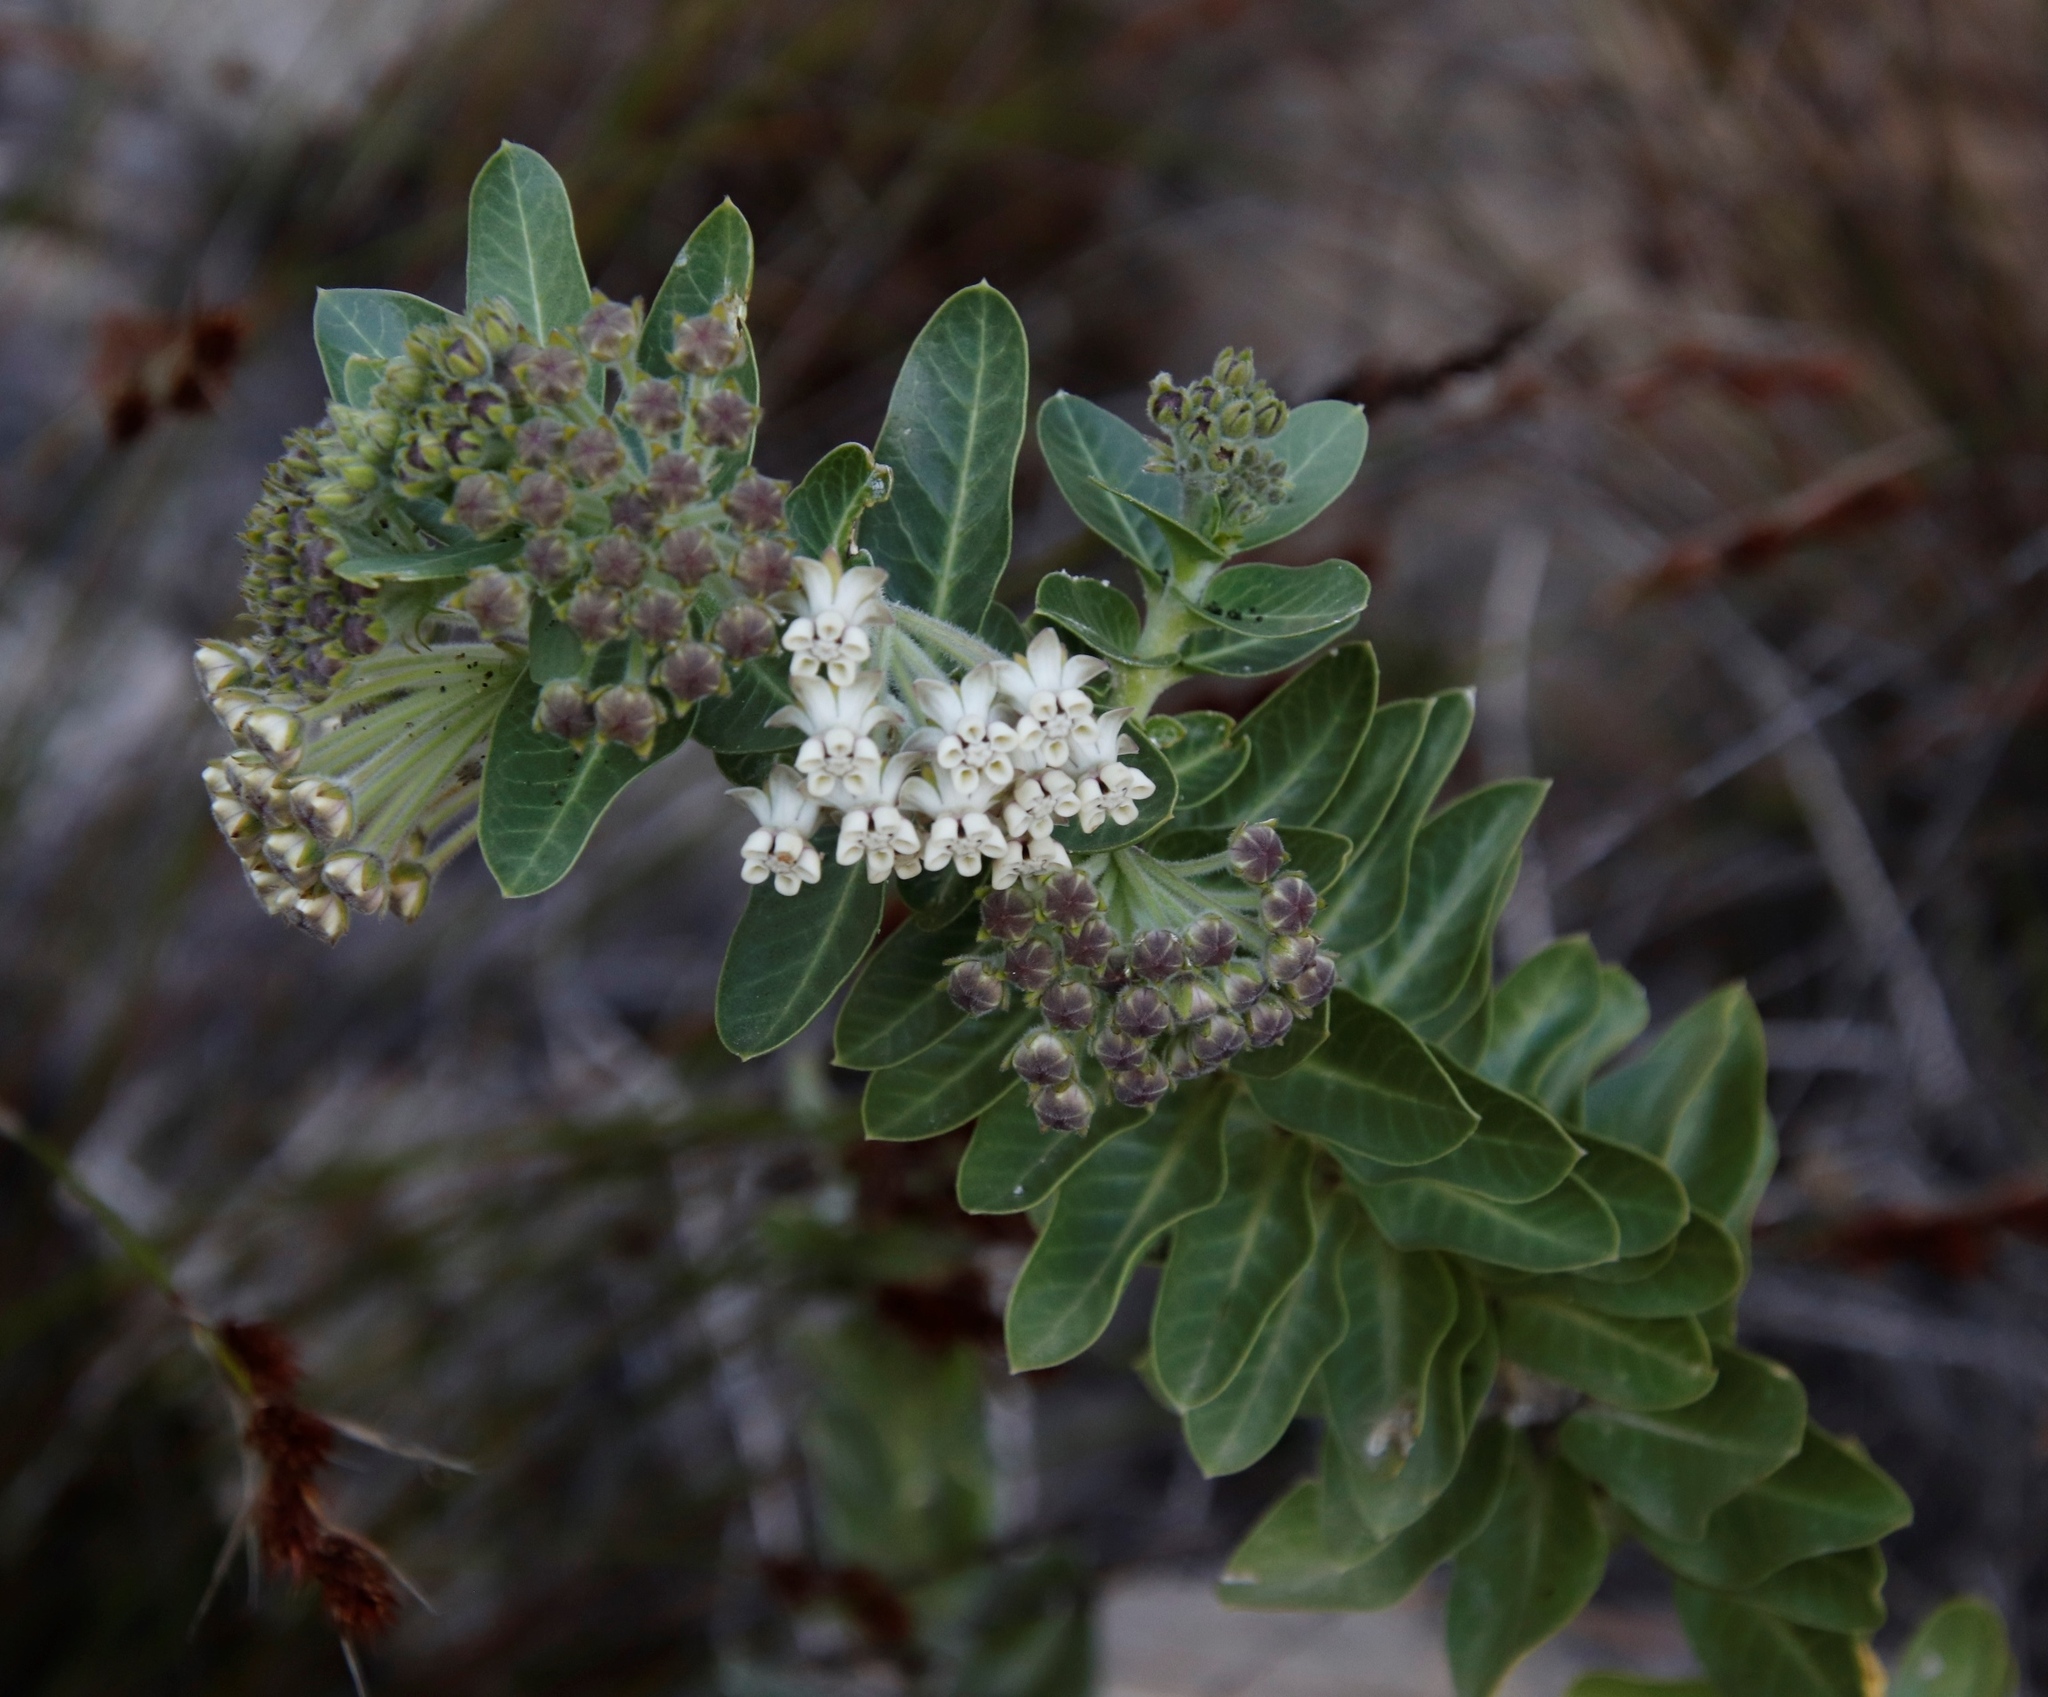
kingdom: Plantae
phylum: Tracheophyta
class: Magnoliopsida
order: Gentianales
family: Apocynaceae
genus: Gomphocarpus
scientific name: Gomphocarpus cancellatus
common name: Wild cotton
